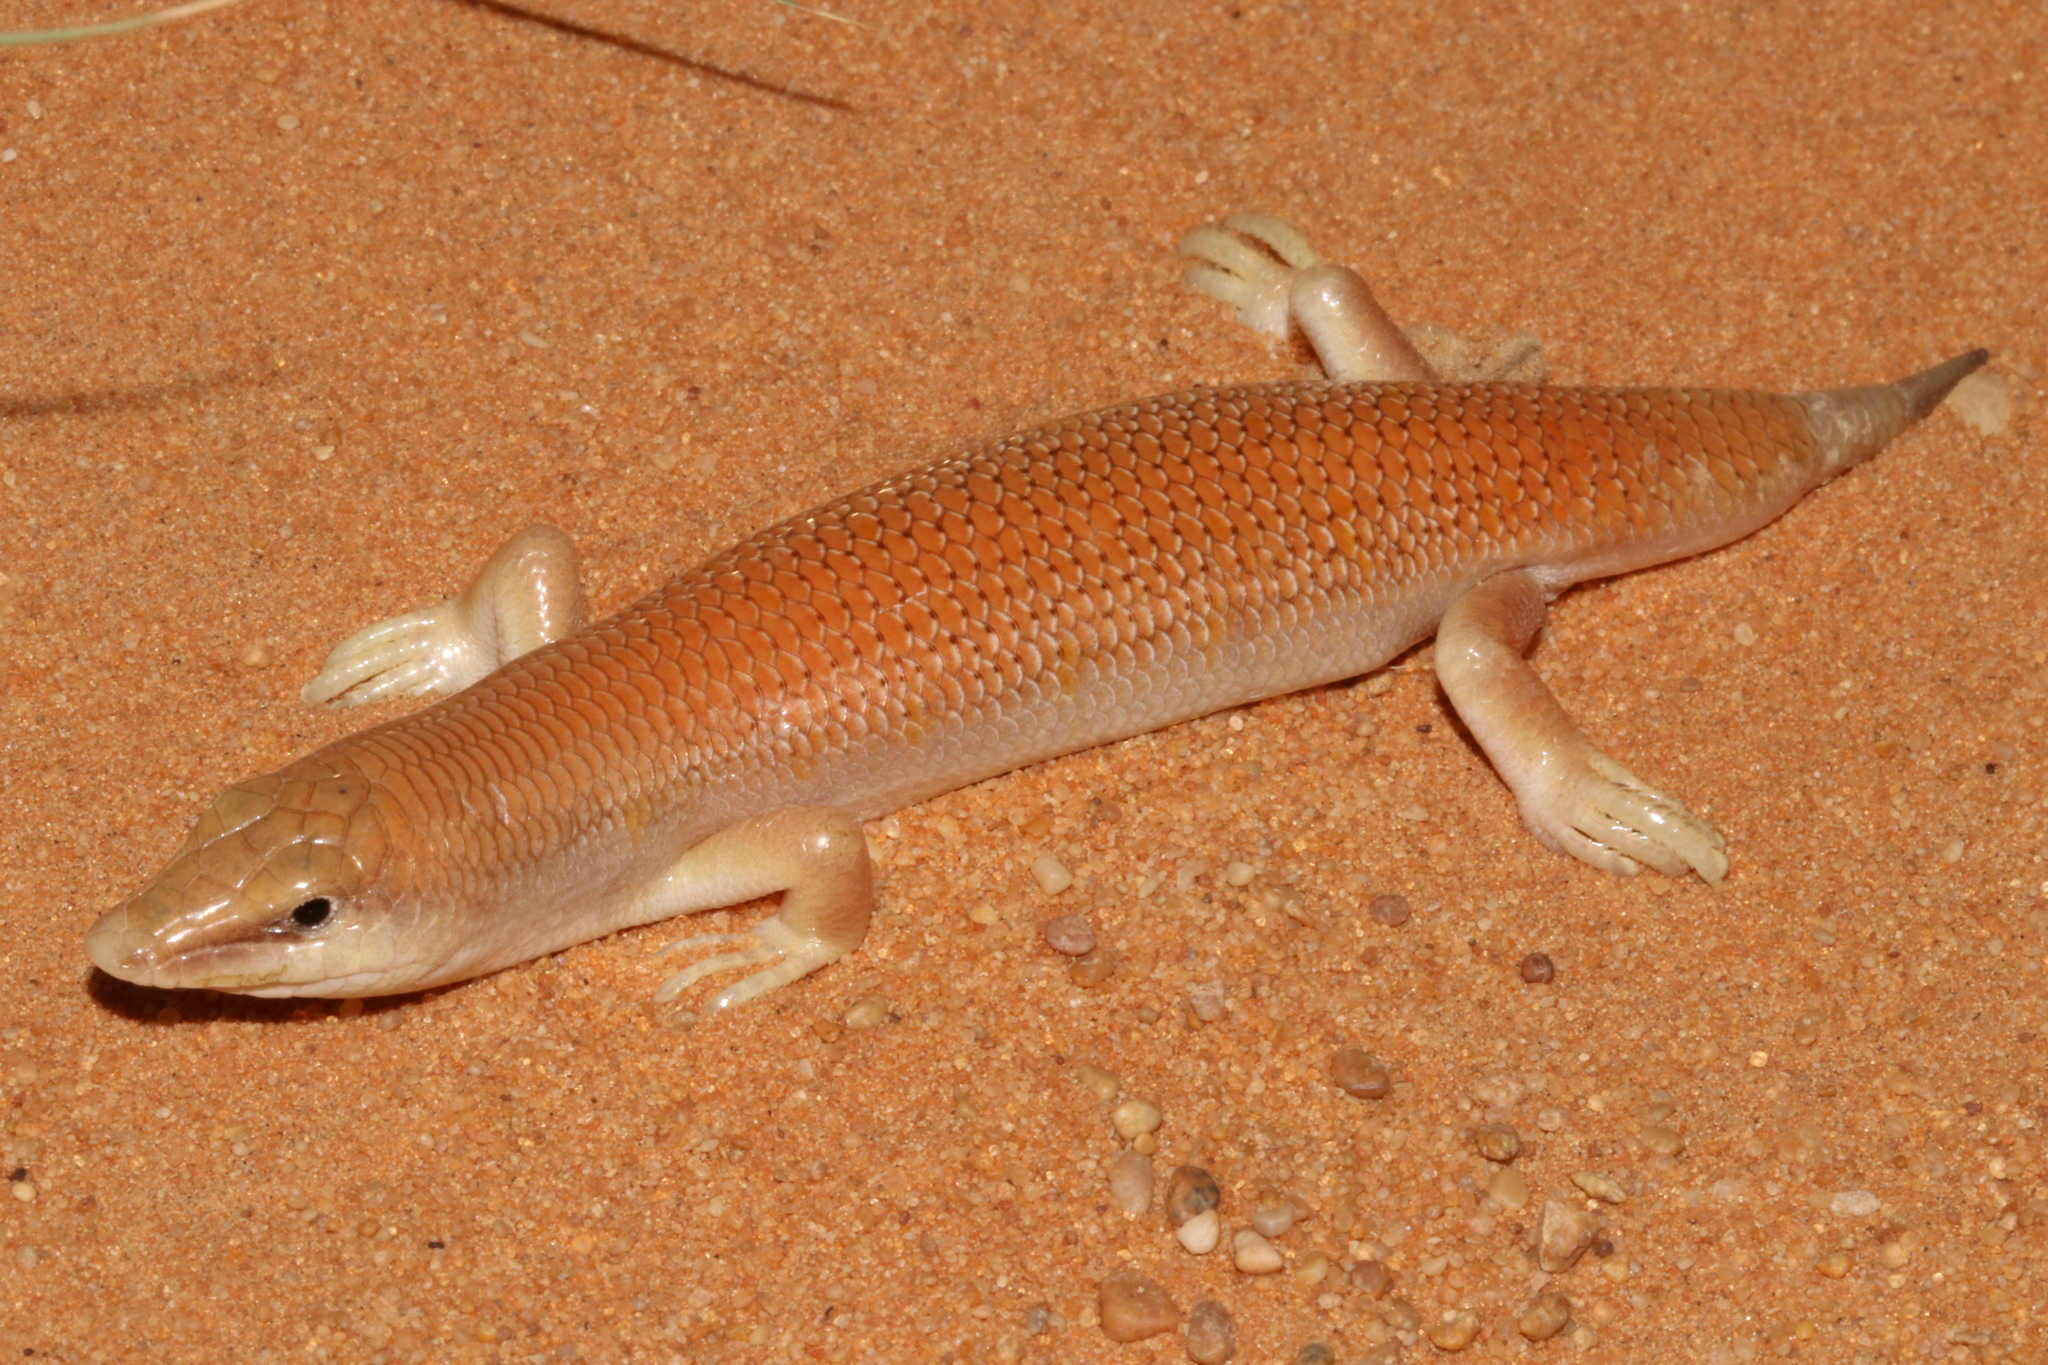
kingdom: Animalia
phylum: Chordata
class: Squamata
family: Scincidae
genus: Scincus
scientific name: Scincus conirostris
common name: Sandfish skink
